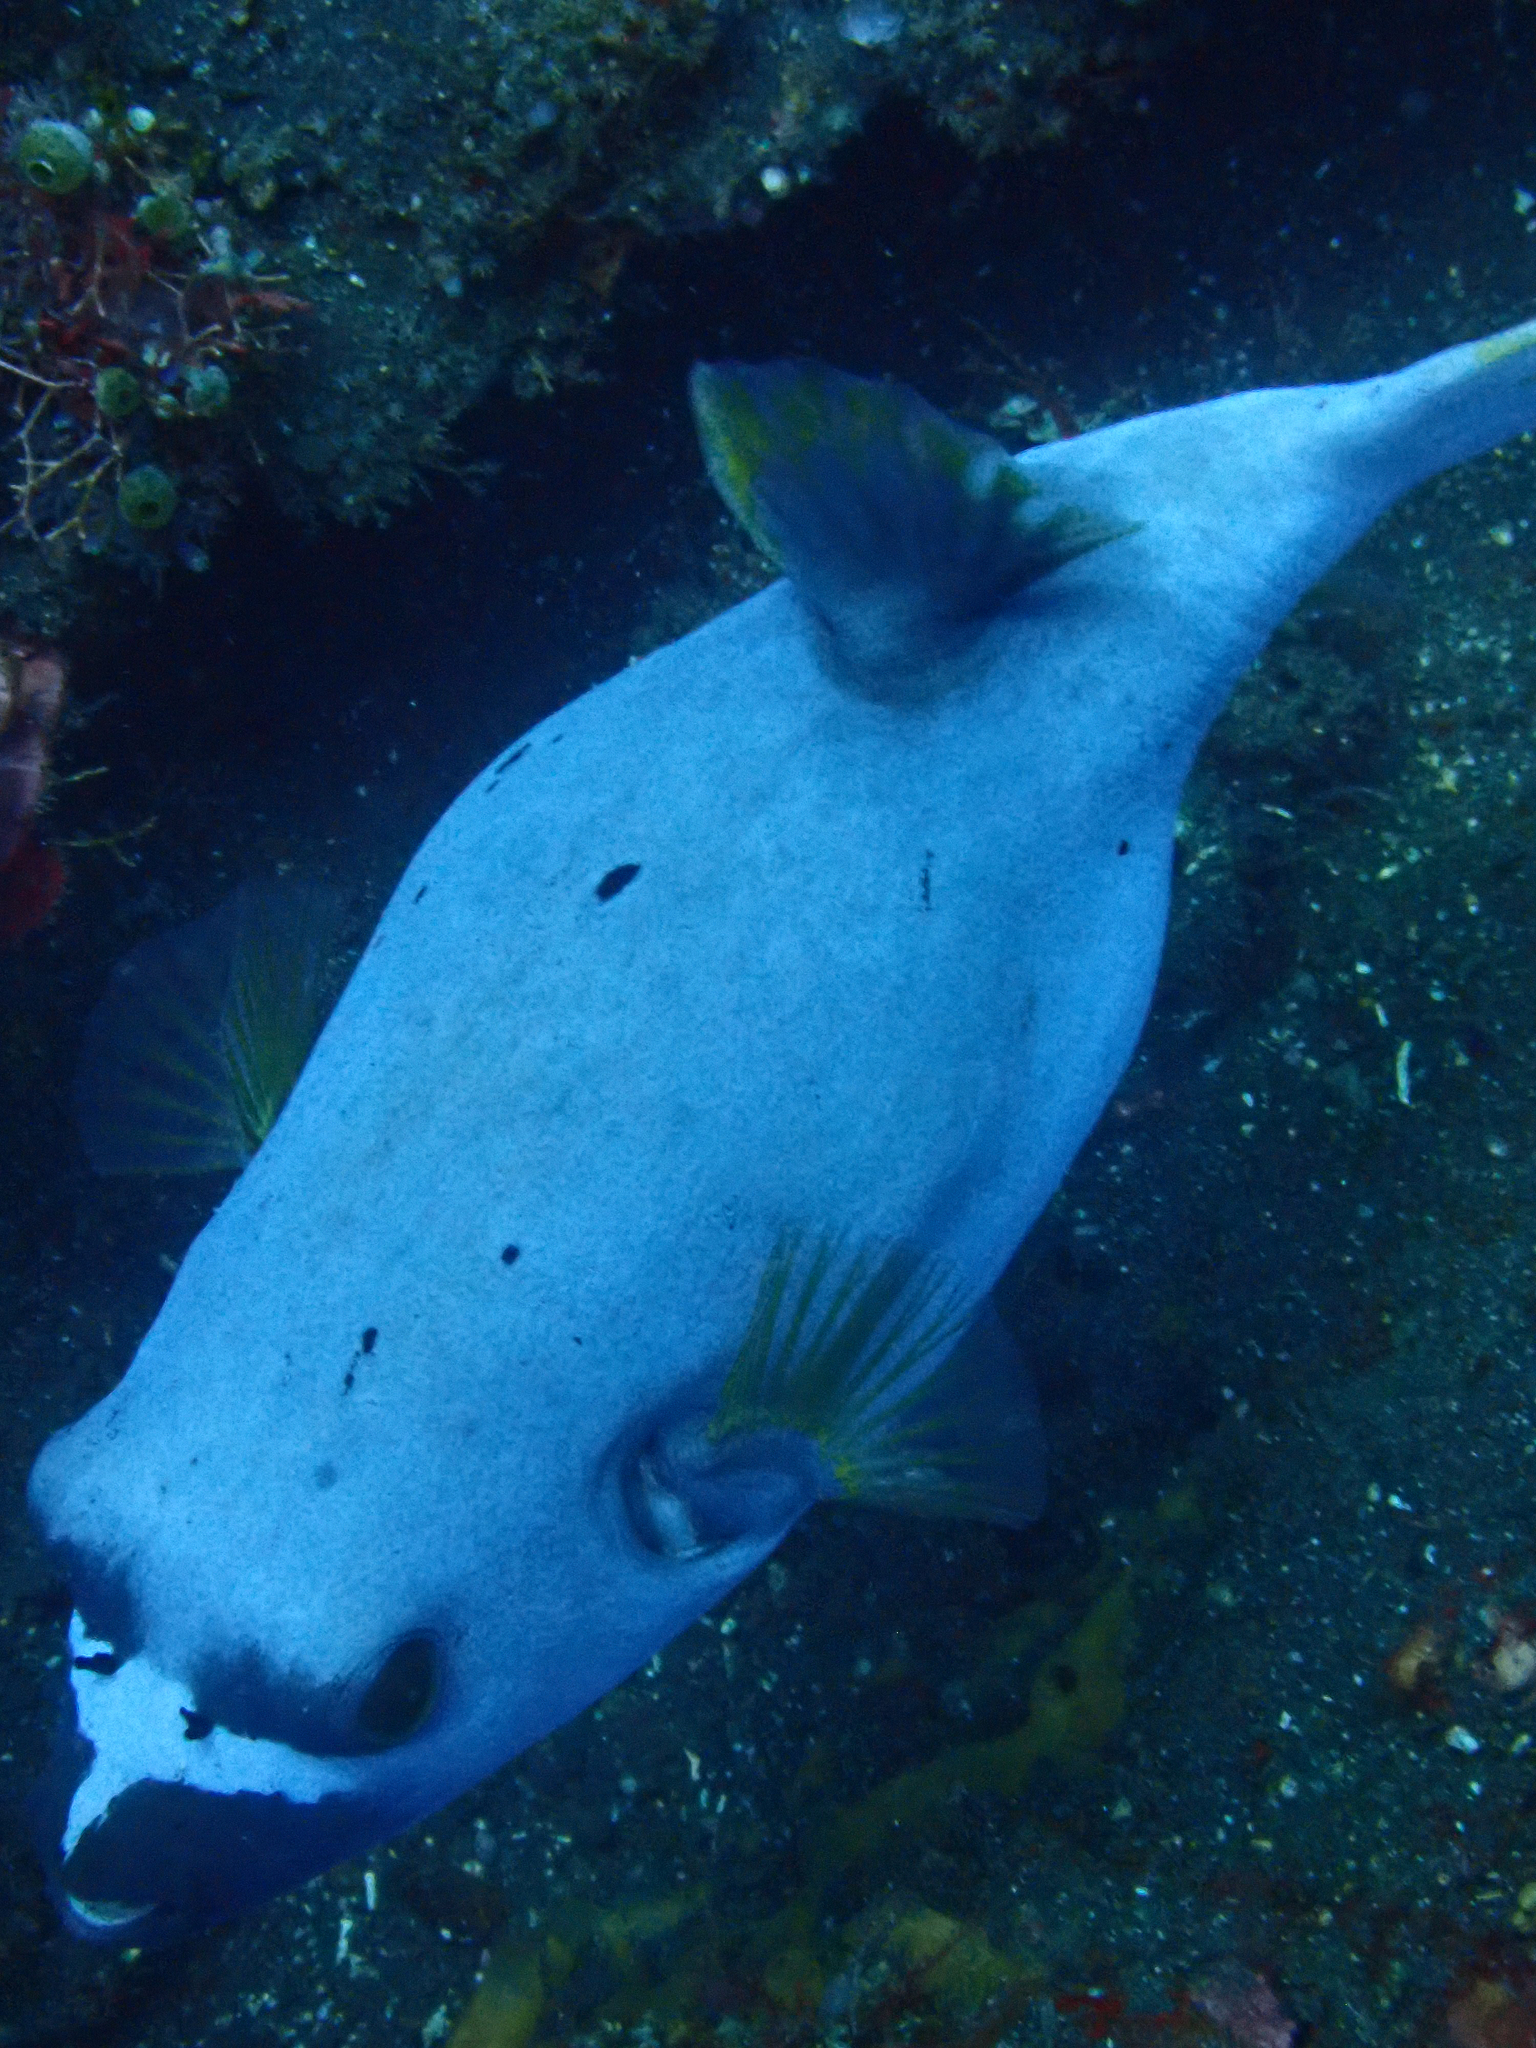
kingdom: Animalia
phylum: Chordata
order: Tetraodontiformes
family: Tetraodontidae
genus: Arothron
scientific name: Arothron nigropunctatus
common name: Black spotted blow fish
